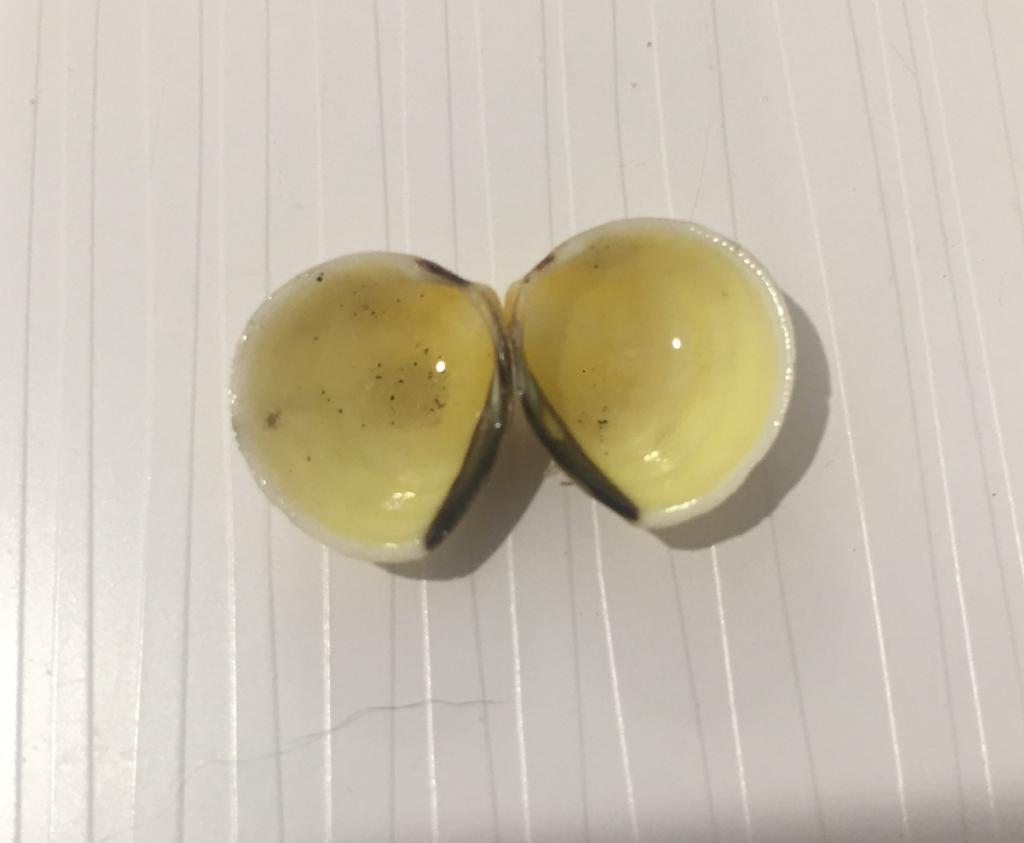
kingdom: Animalia
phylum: Mollusca
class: Bivalvia
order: Cardiida
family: Cardiidae
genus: Laevicardium
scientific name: Laevicardium mortoni
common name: Morton eggcockle
